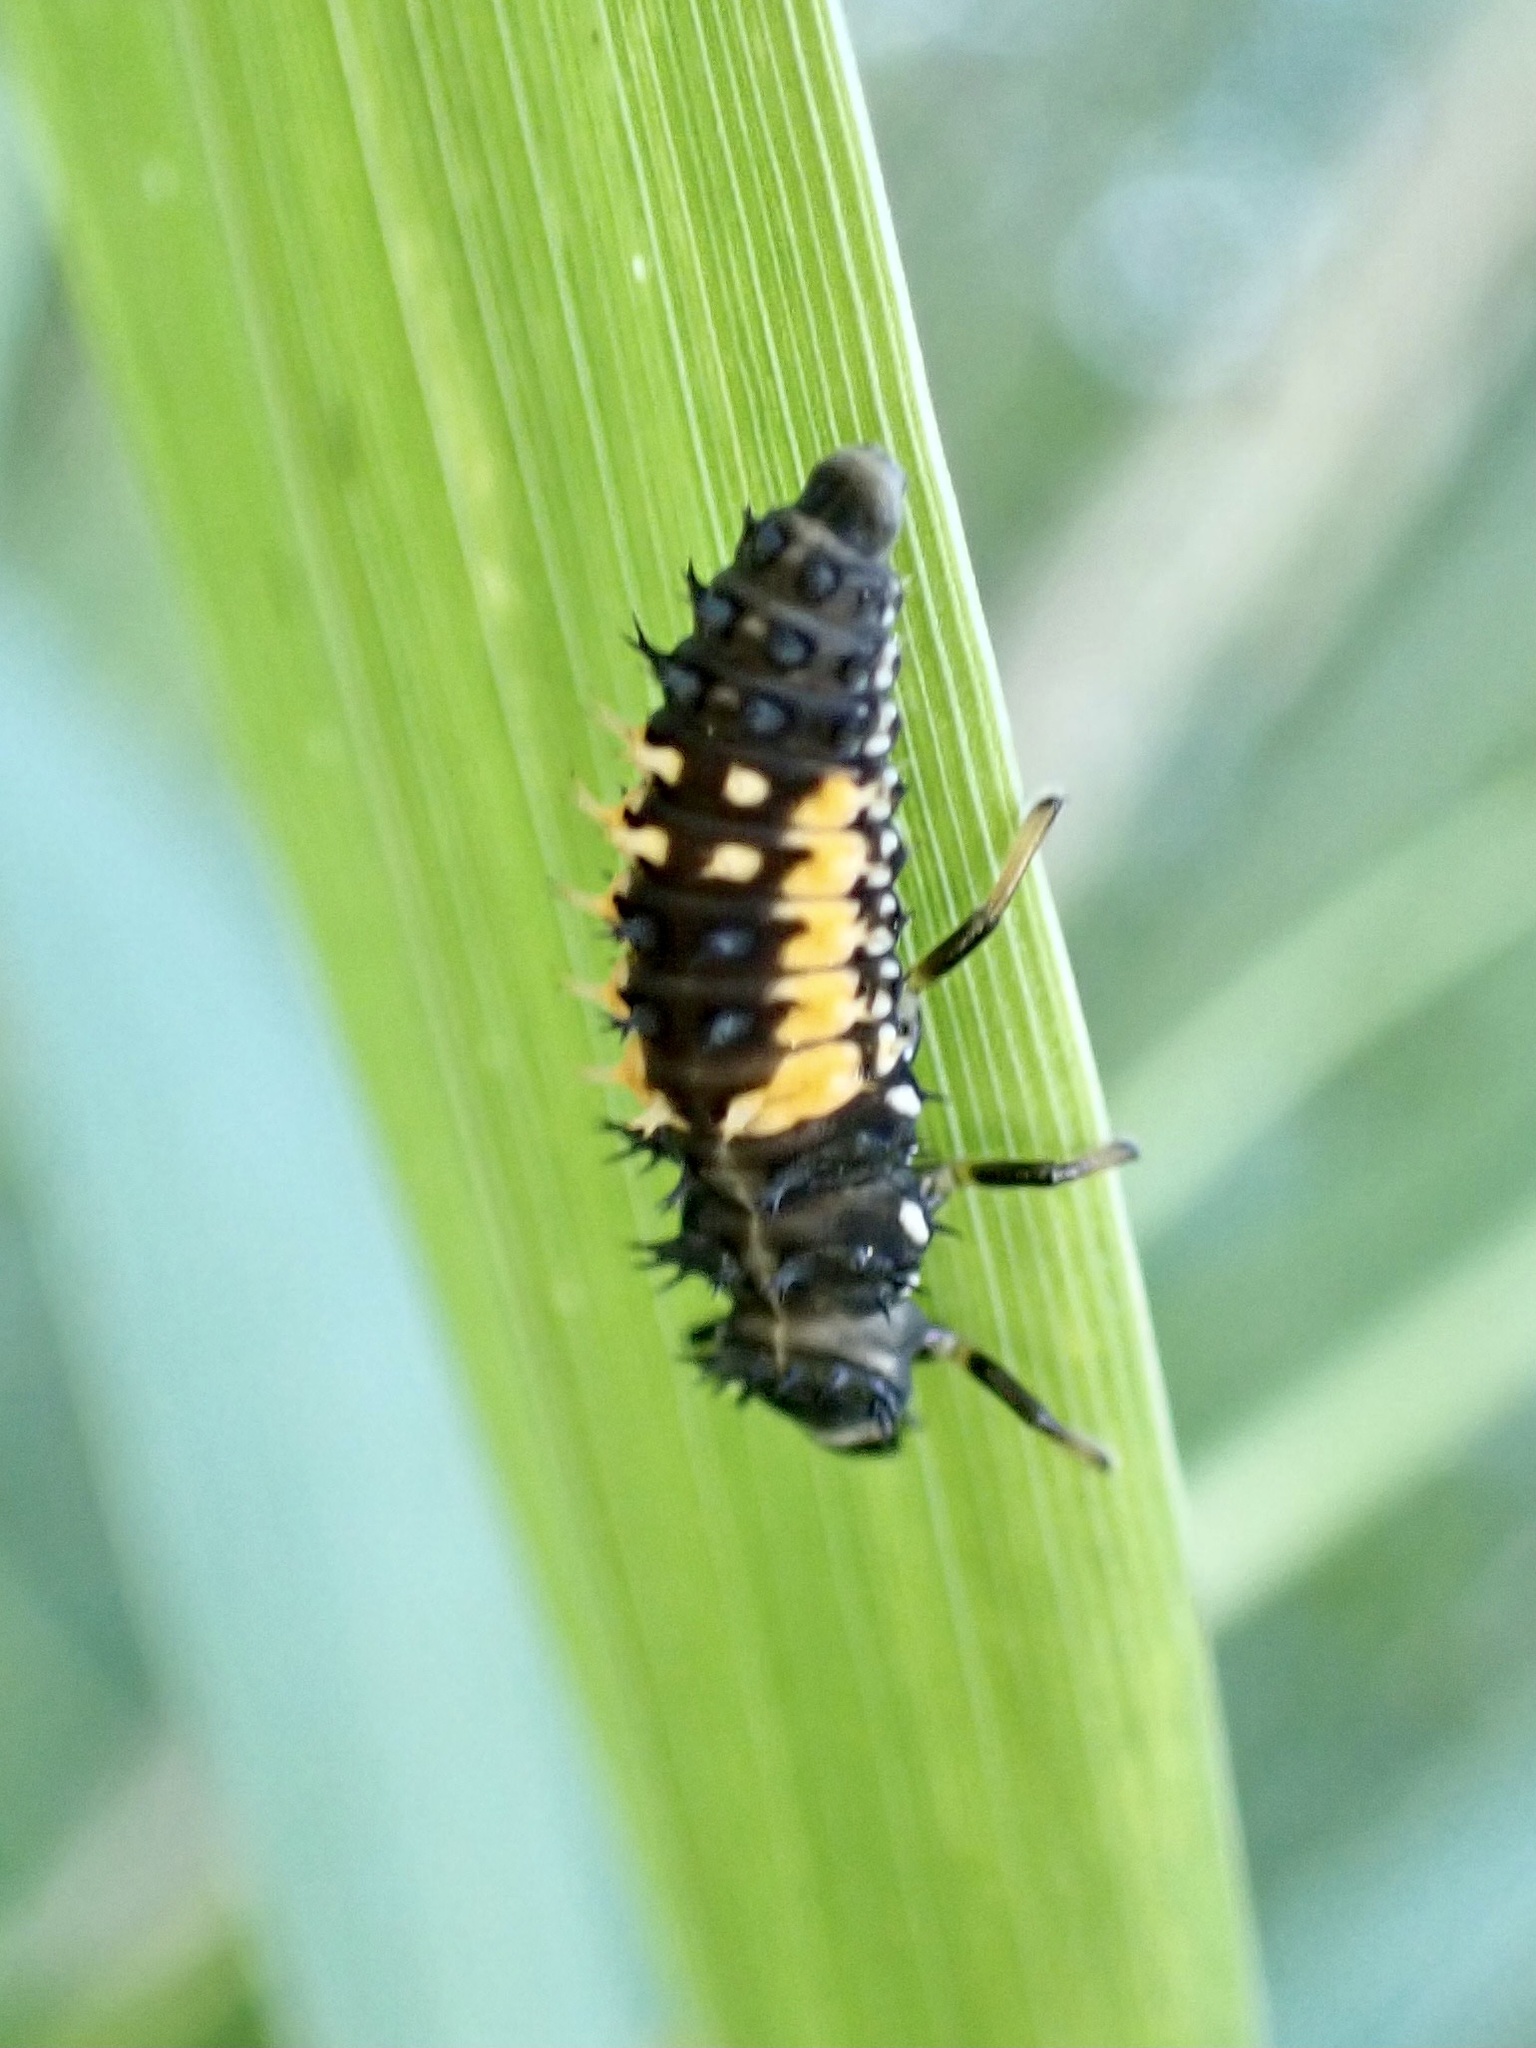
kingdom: Animalia
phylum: Arthropoda
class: Insecta
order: Coleoptera
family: Coccinellidae
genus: Harmonia
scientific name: Harmonia axyridis
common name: Harlequin ladybird
